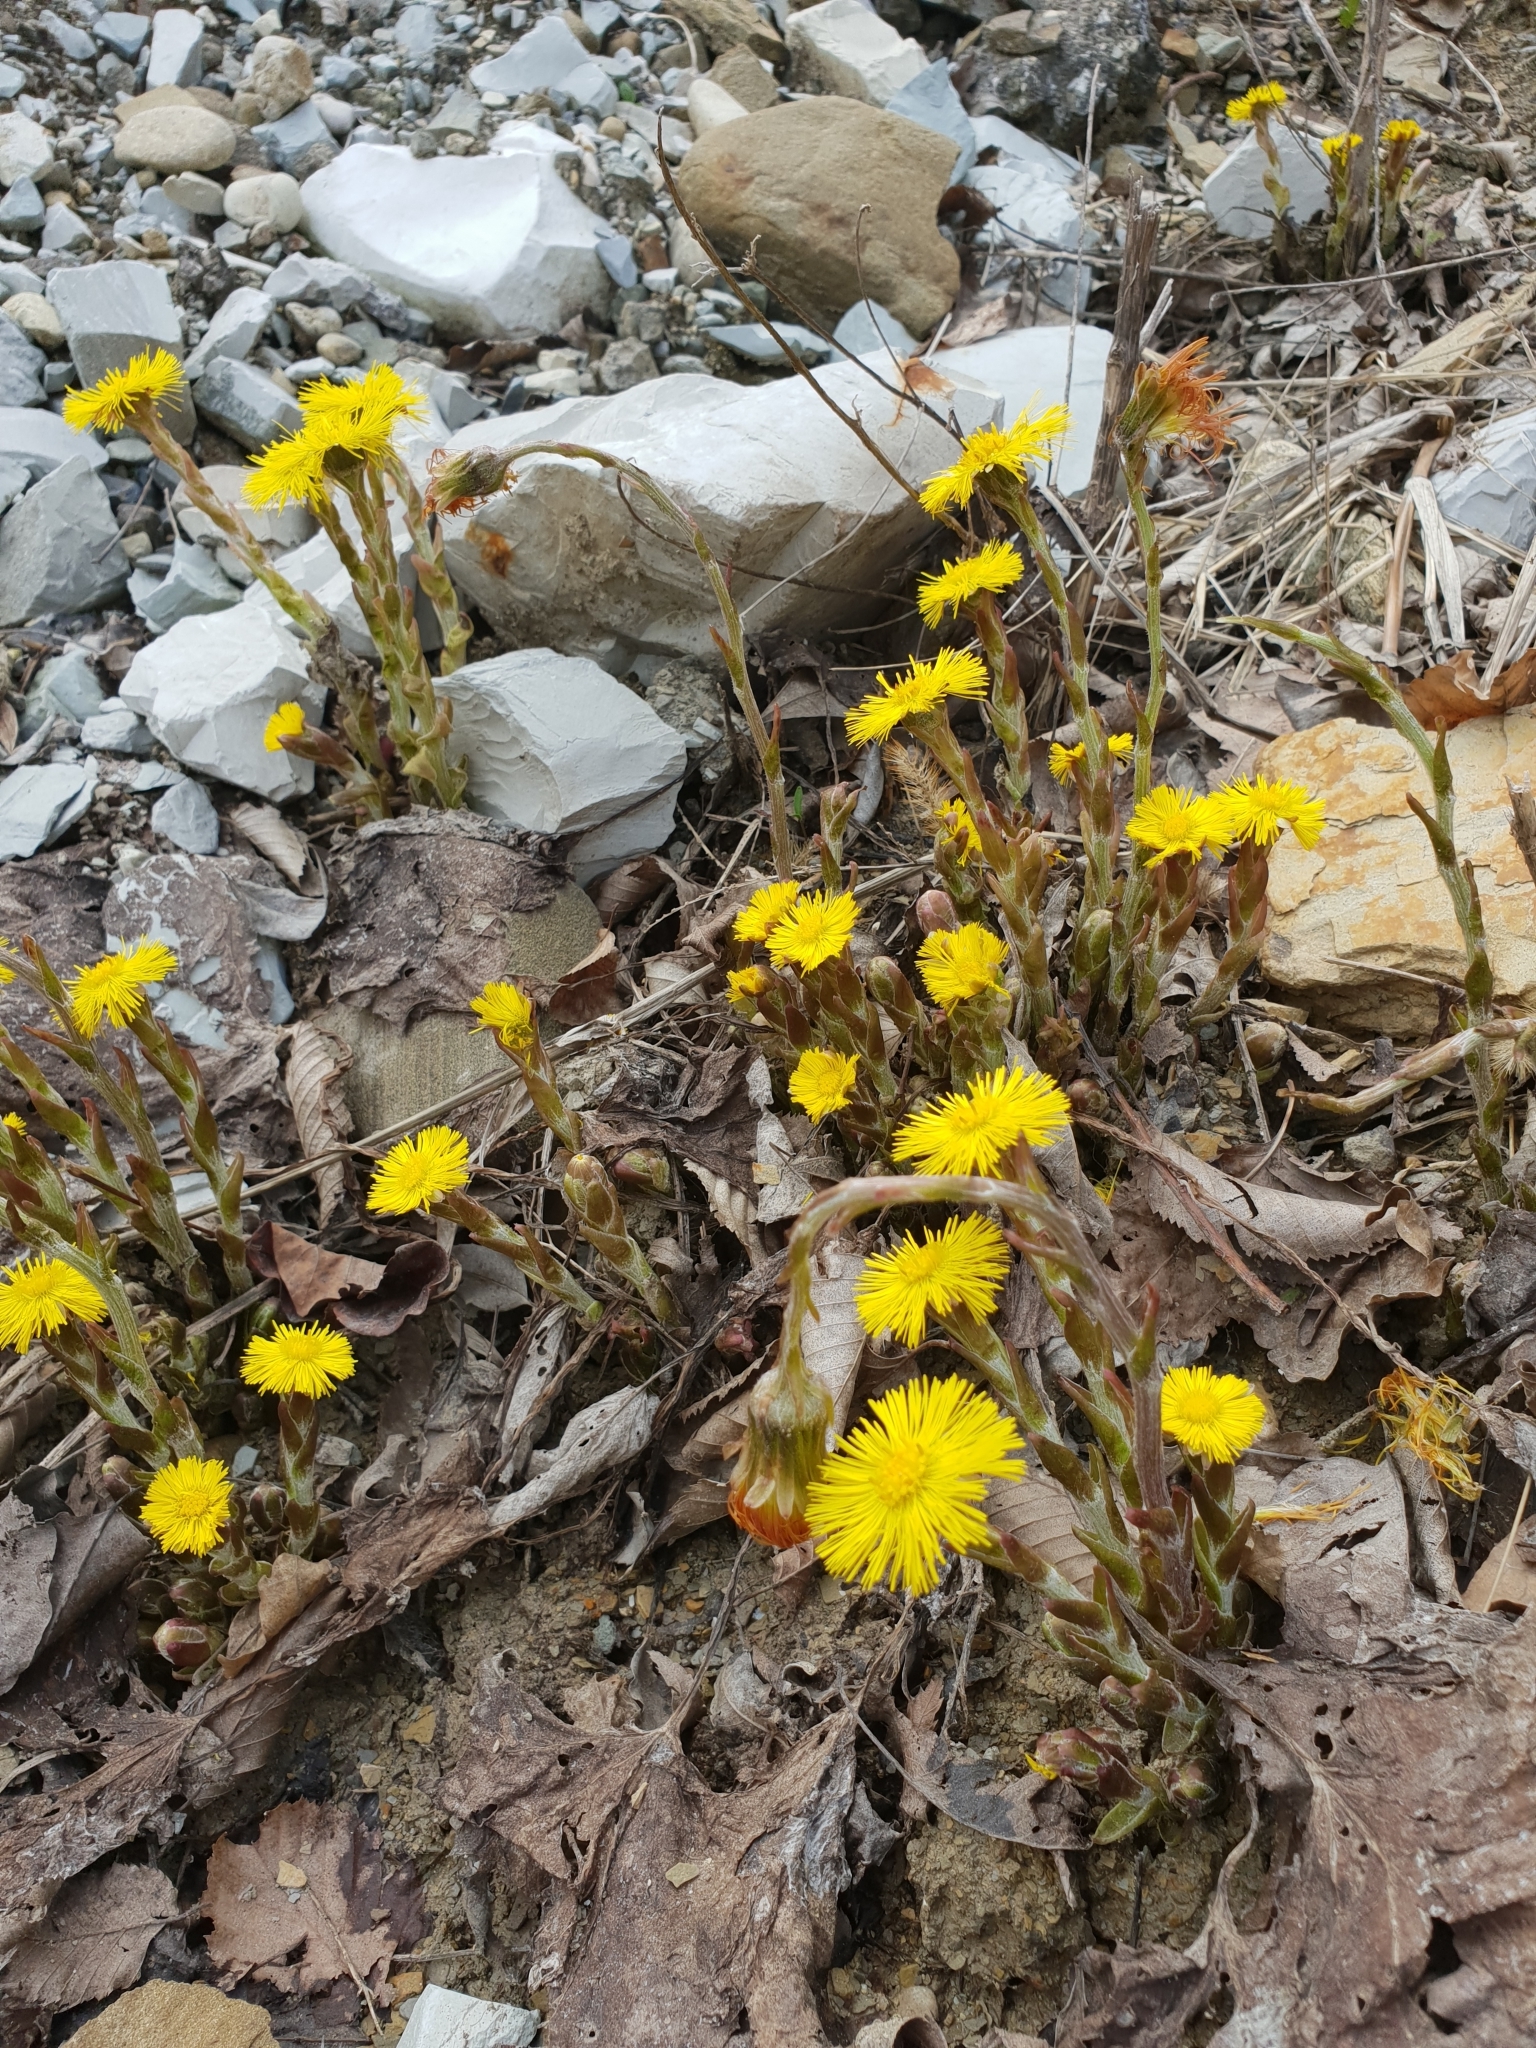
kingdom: Plantae
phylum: Tracheophyta
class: Magnoliopsida
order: Asterales
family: Asteraceae
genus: Tussilago
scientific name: Tussilago farfara
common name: Coltsfoot
